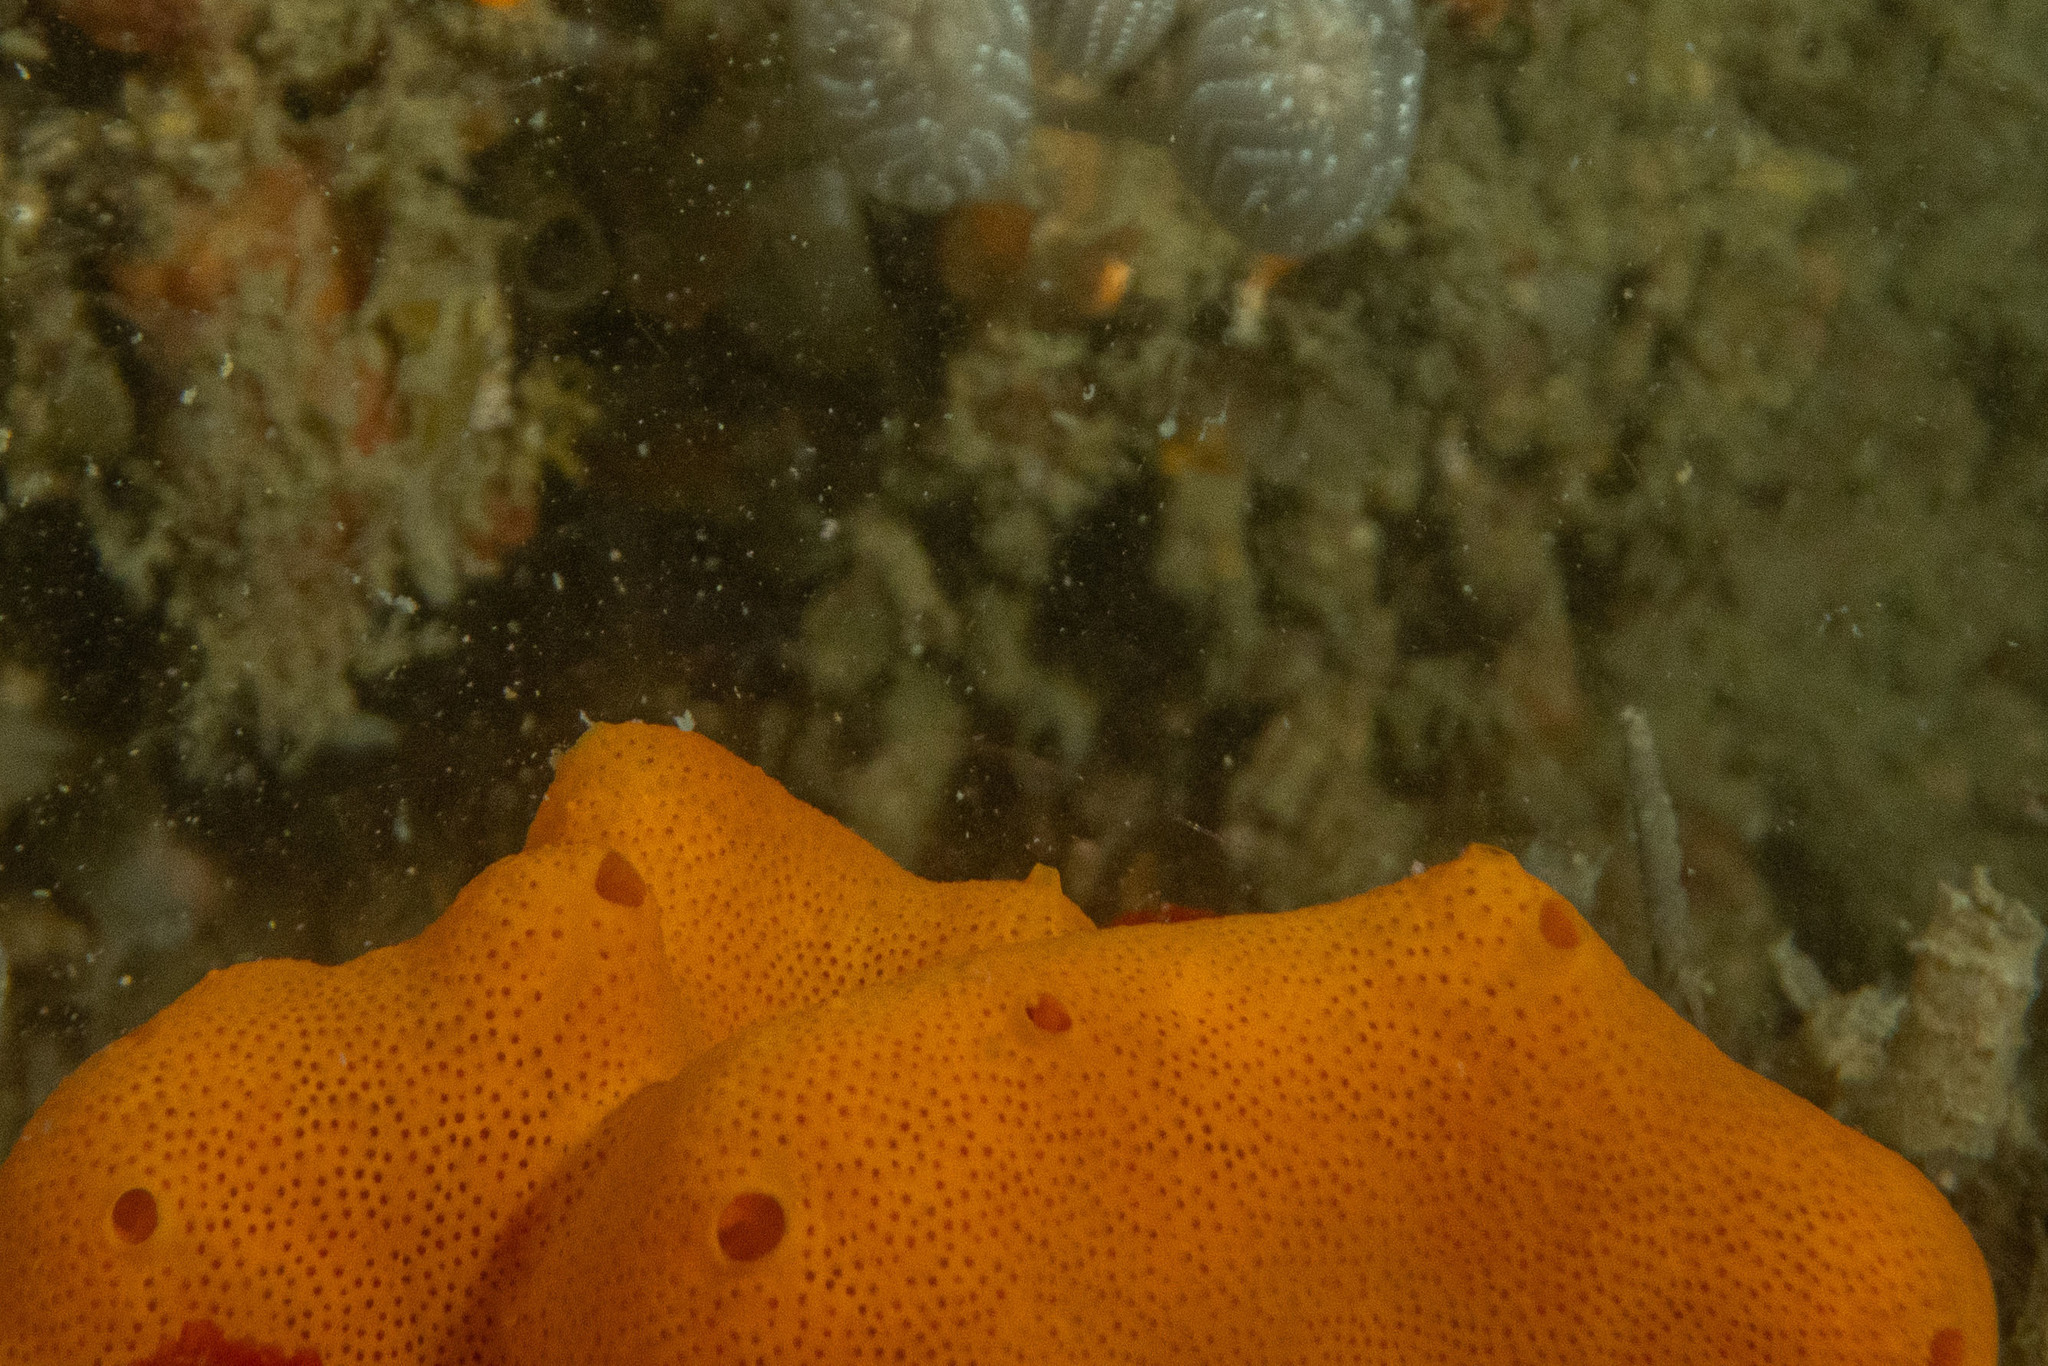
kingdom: Animalia
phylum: Chordata
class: Ascidiacea
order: Aplousobranchia
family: Didemnidae
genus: Polysyncraton
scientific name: Polysyncraton chondrilla
